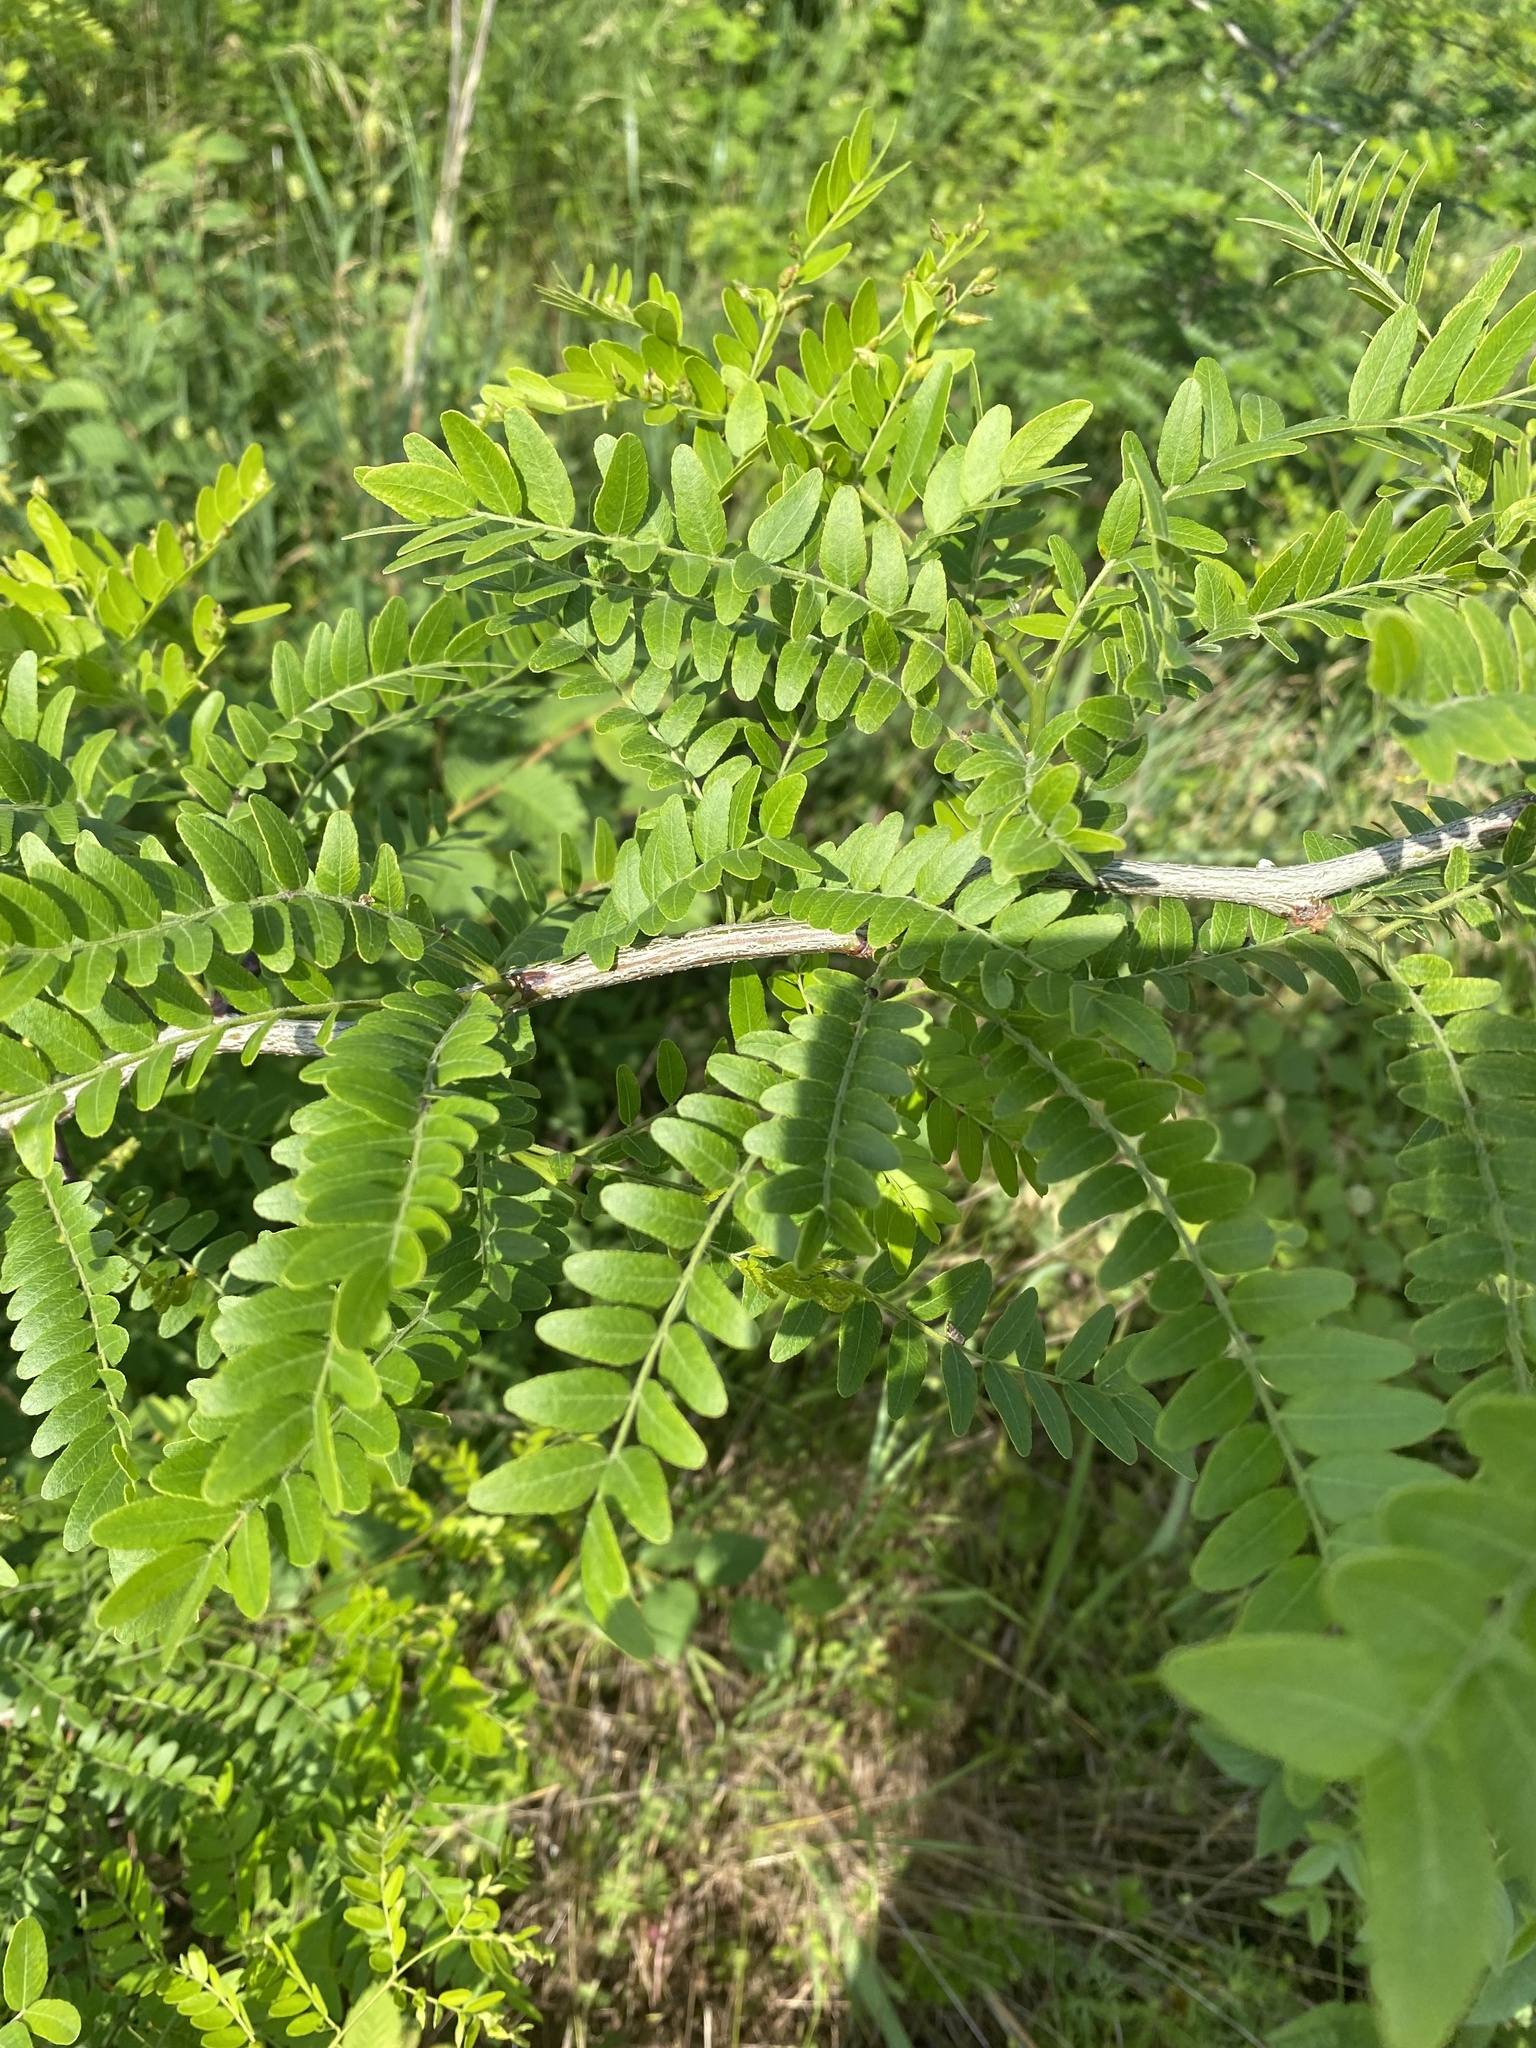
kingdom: Plantae
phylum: Tracheophyta
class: Magnoliopsida
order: Fabales
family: Fabaceae
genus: Gleditsia
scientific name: Gleditsia triacanthos
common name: Common honeylocust
